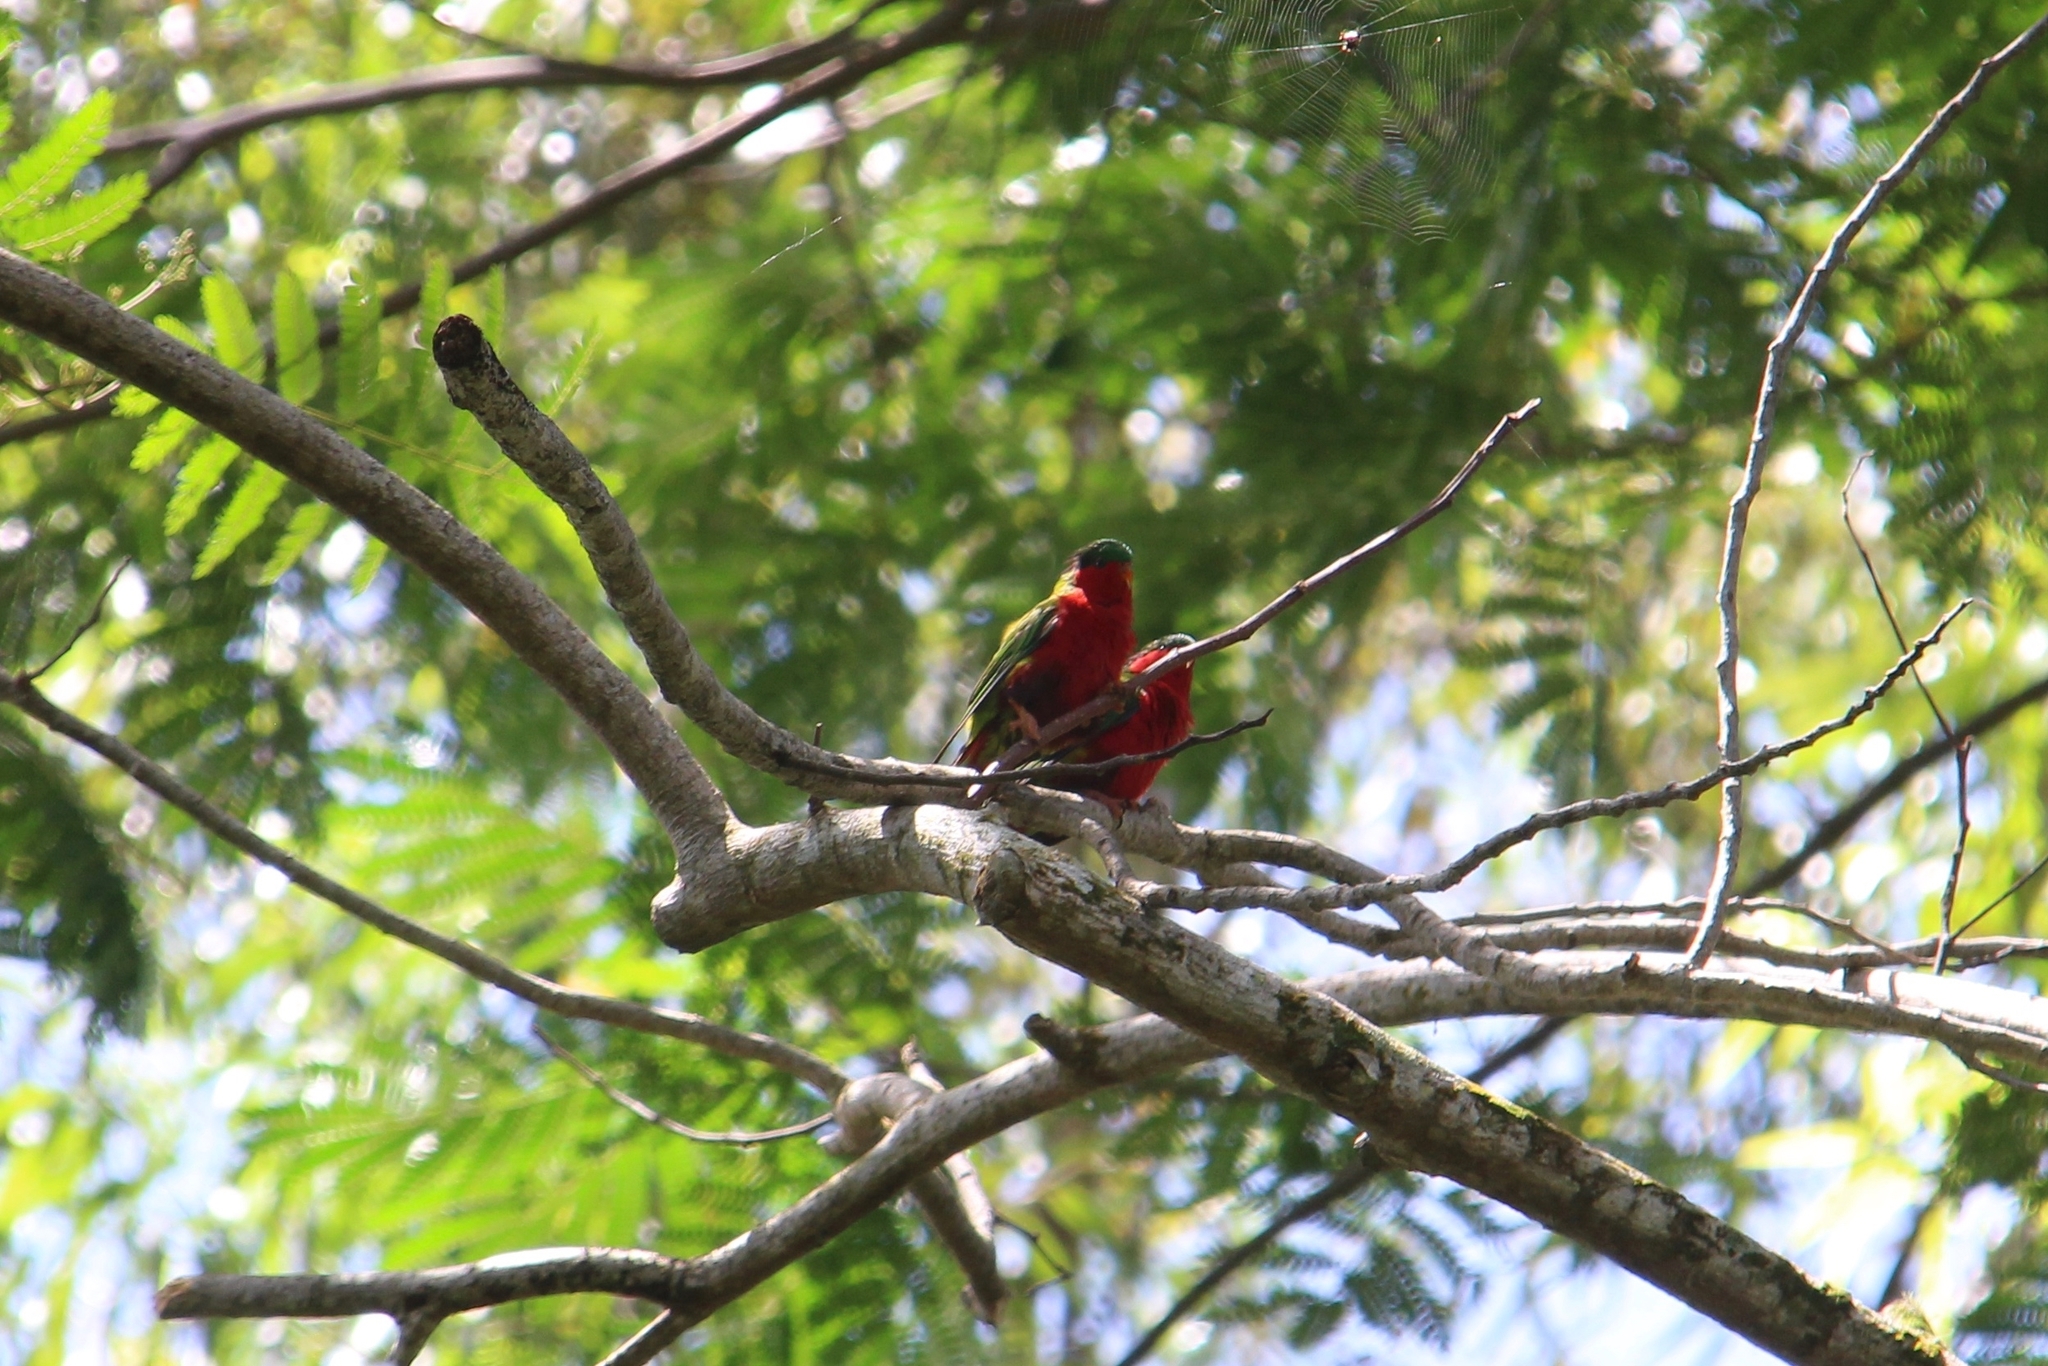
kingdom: Animalia
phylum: Chordata
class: Aves
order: Psittaciformes
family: Psittacidae
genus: Vini
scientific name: Vini kuhlii
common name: Kuhl's lorikeet
